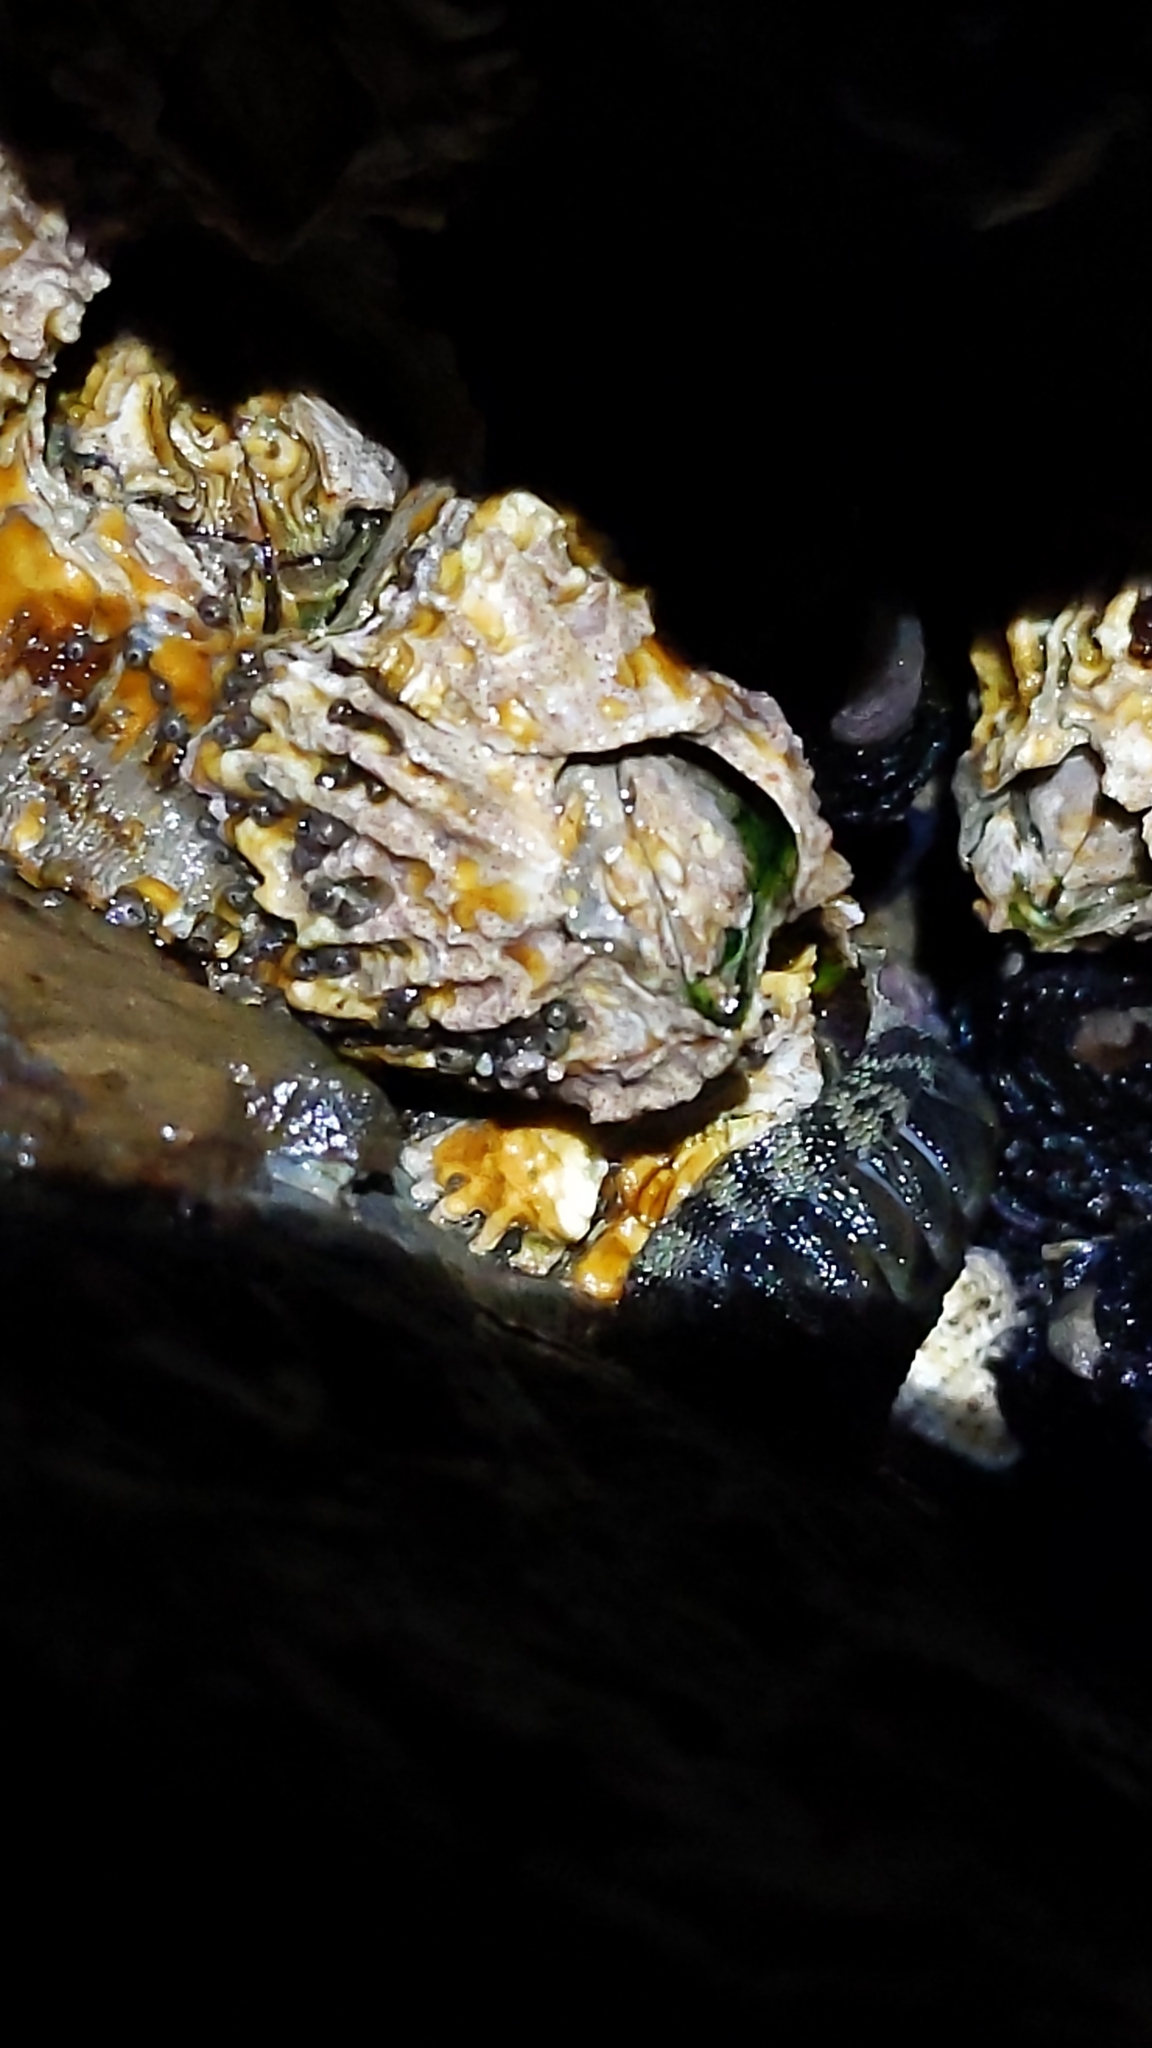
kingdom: Animalia
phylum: Arthropoda
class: Maxillopoda
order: Sessilia
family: Tetraclitidae
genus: Epopella
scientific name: Epopella plicata
